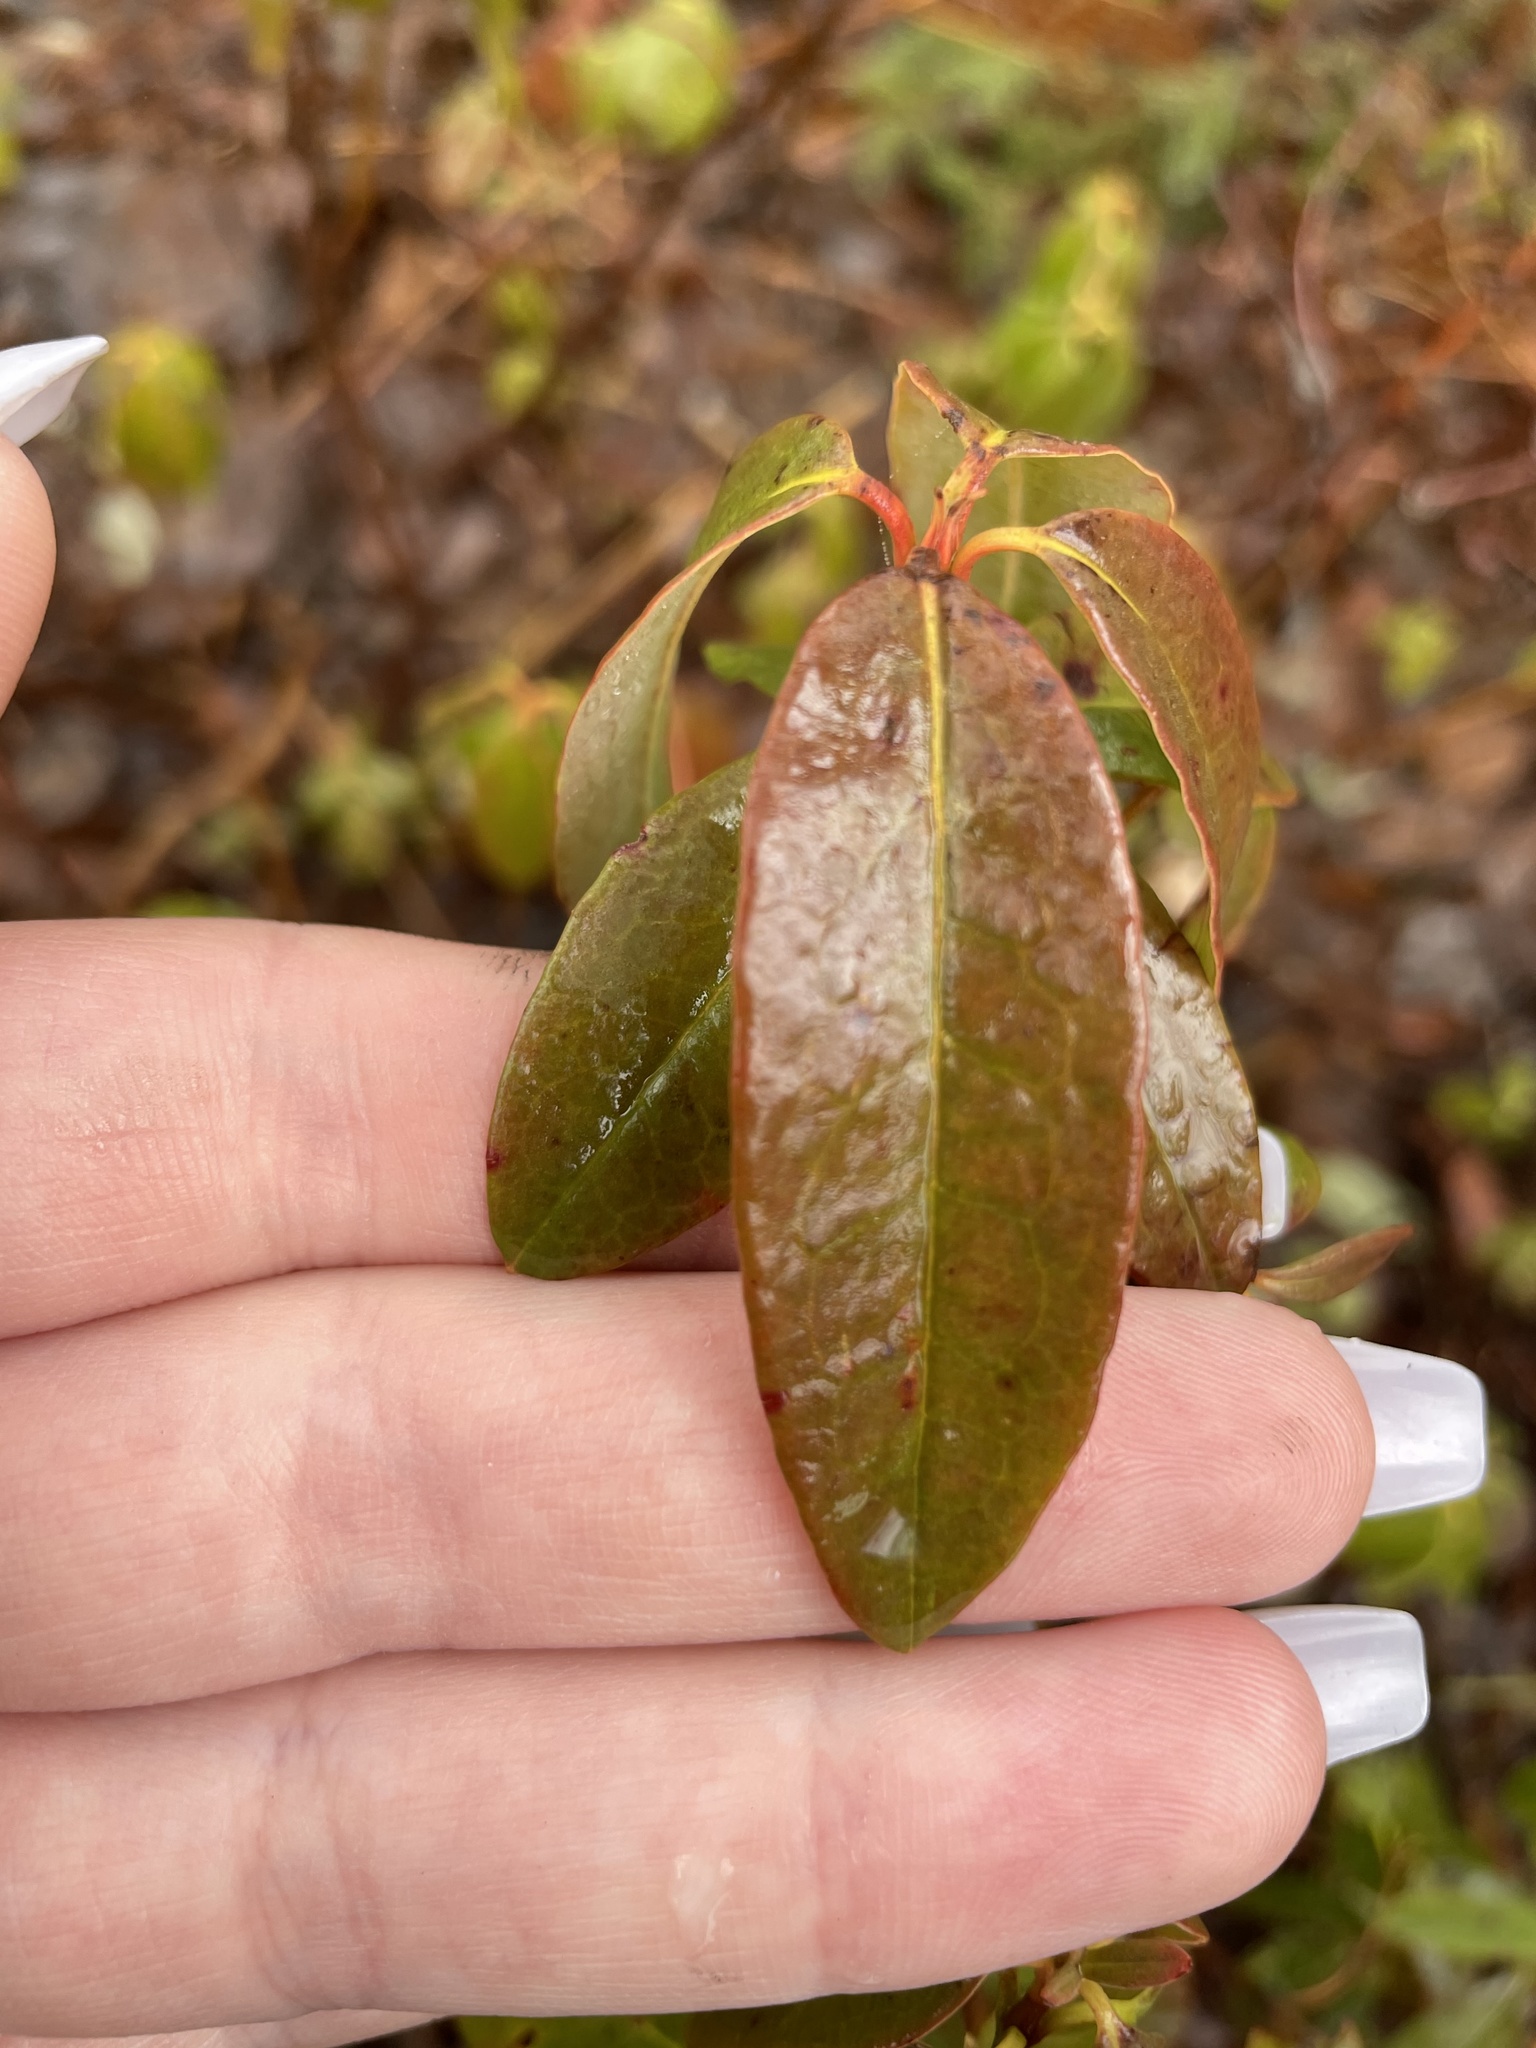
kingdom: Plantae
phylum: Tracheophyta
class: Magnoliopsida
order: Ericales
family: Ericaceae
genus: Kalmia
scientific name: Kalmia angustifolia
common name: Sheep-laurel
